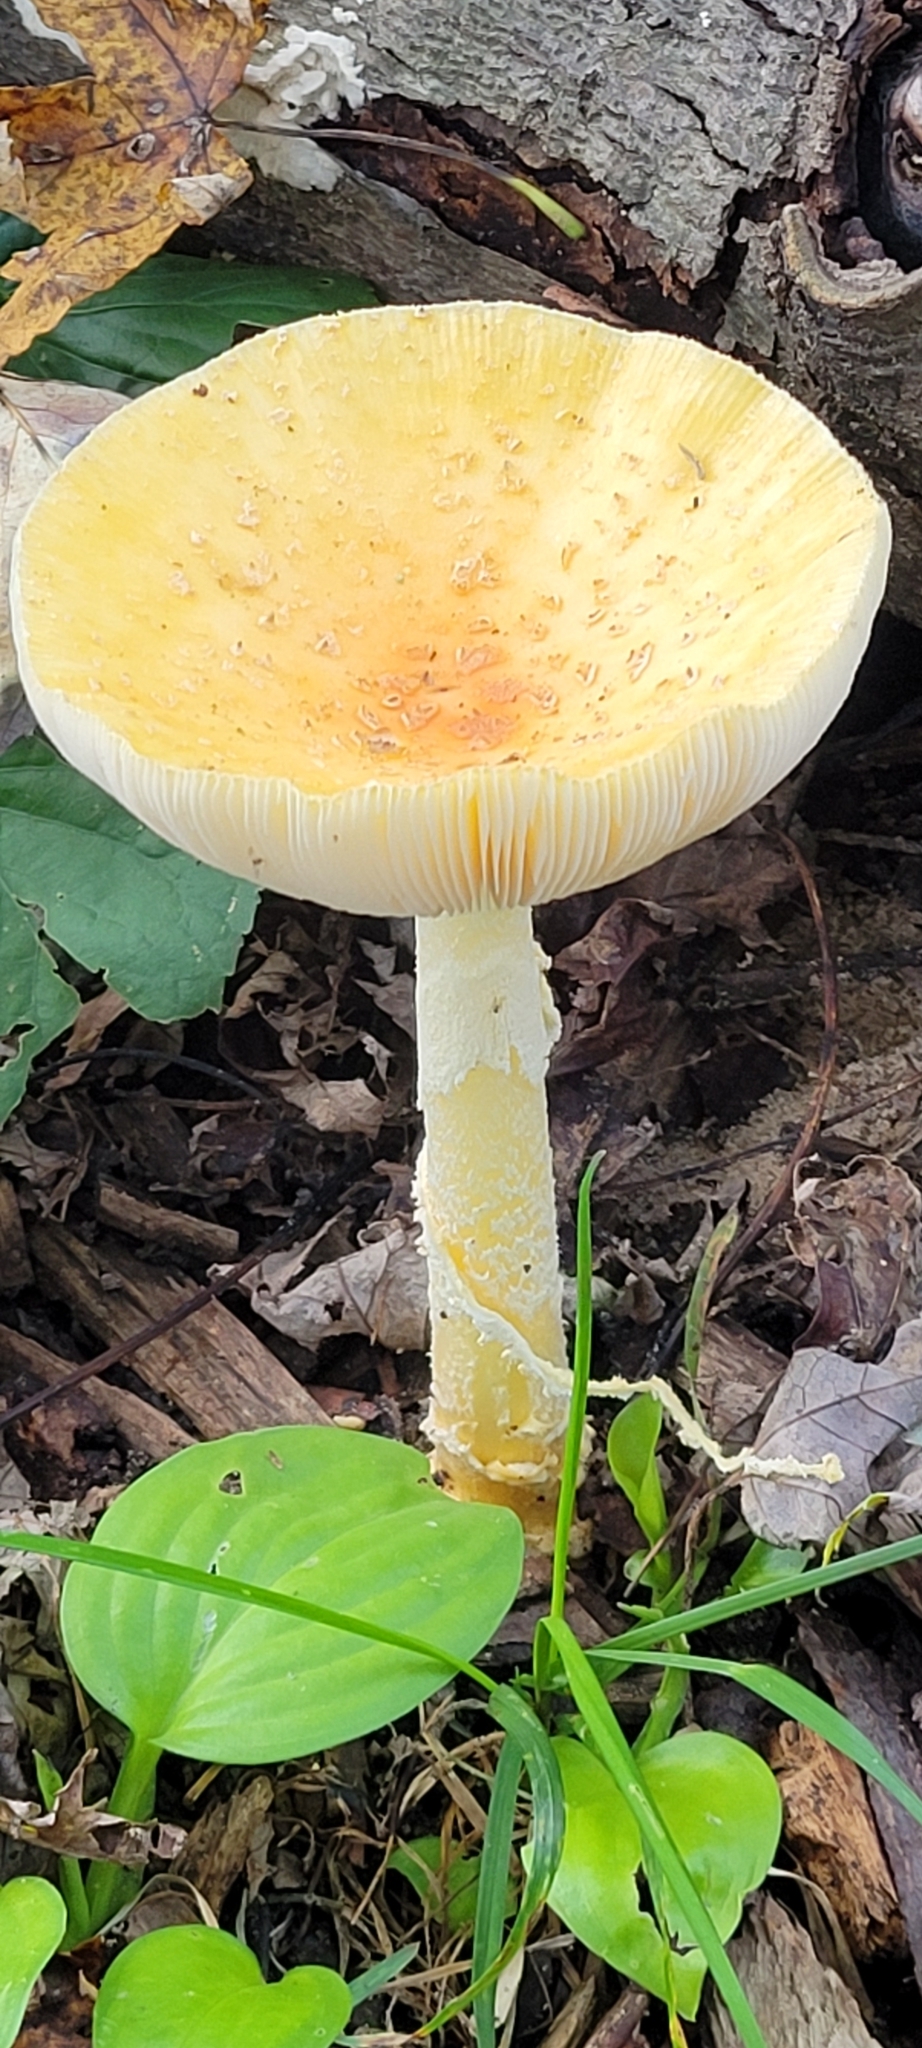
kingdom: Fungi
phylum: Basidiomycota
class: Agaricomycetes
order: Agaricales
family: Amanitaceae
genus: Amanita
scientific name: Amanita muscaria
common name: Fly agaric
